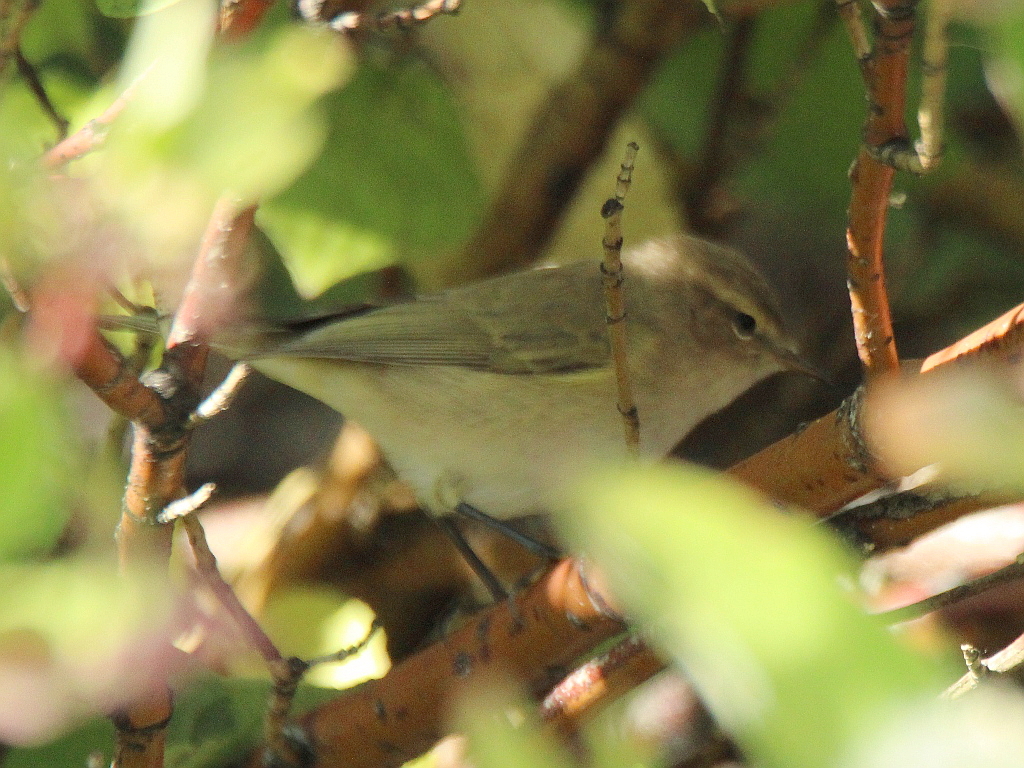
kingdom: Animalia
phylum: Chordata
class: Aves
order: Passeriformes
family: Phylloscopidae
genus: Phylloscopus
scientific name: Phylloscopus collybita
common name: Common chiffchaff
